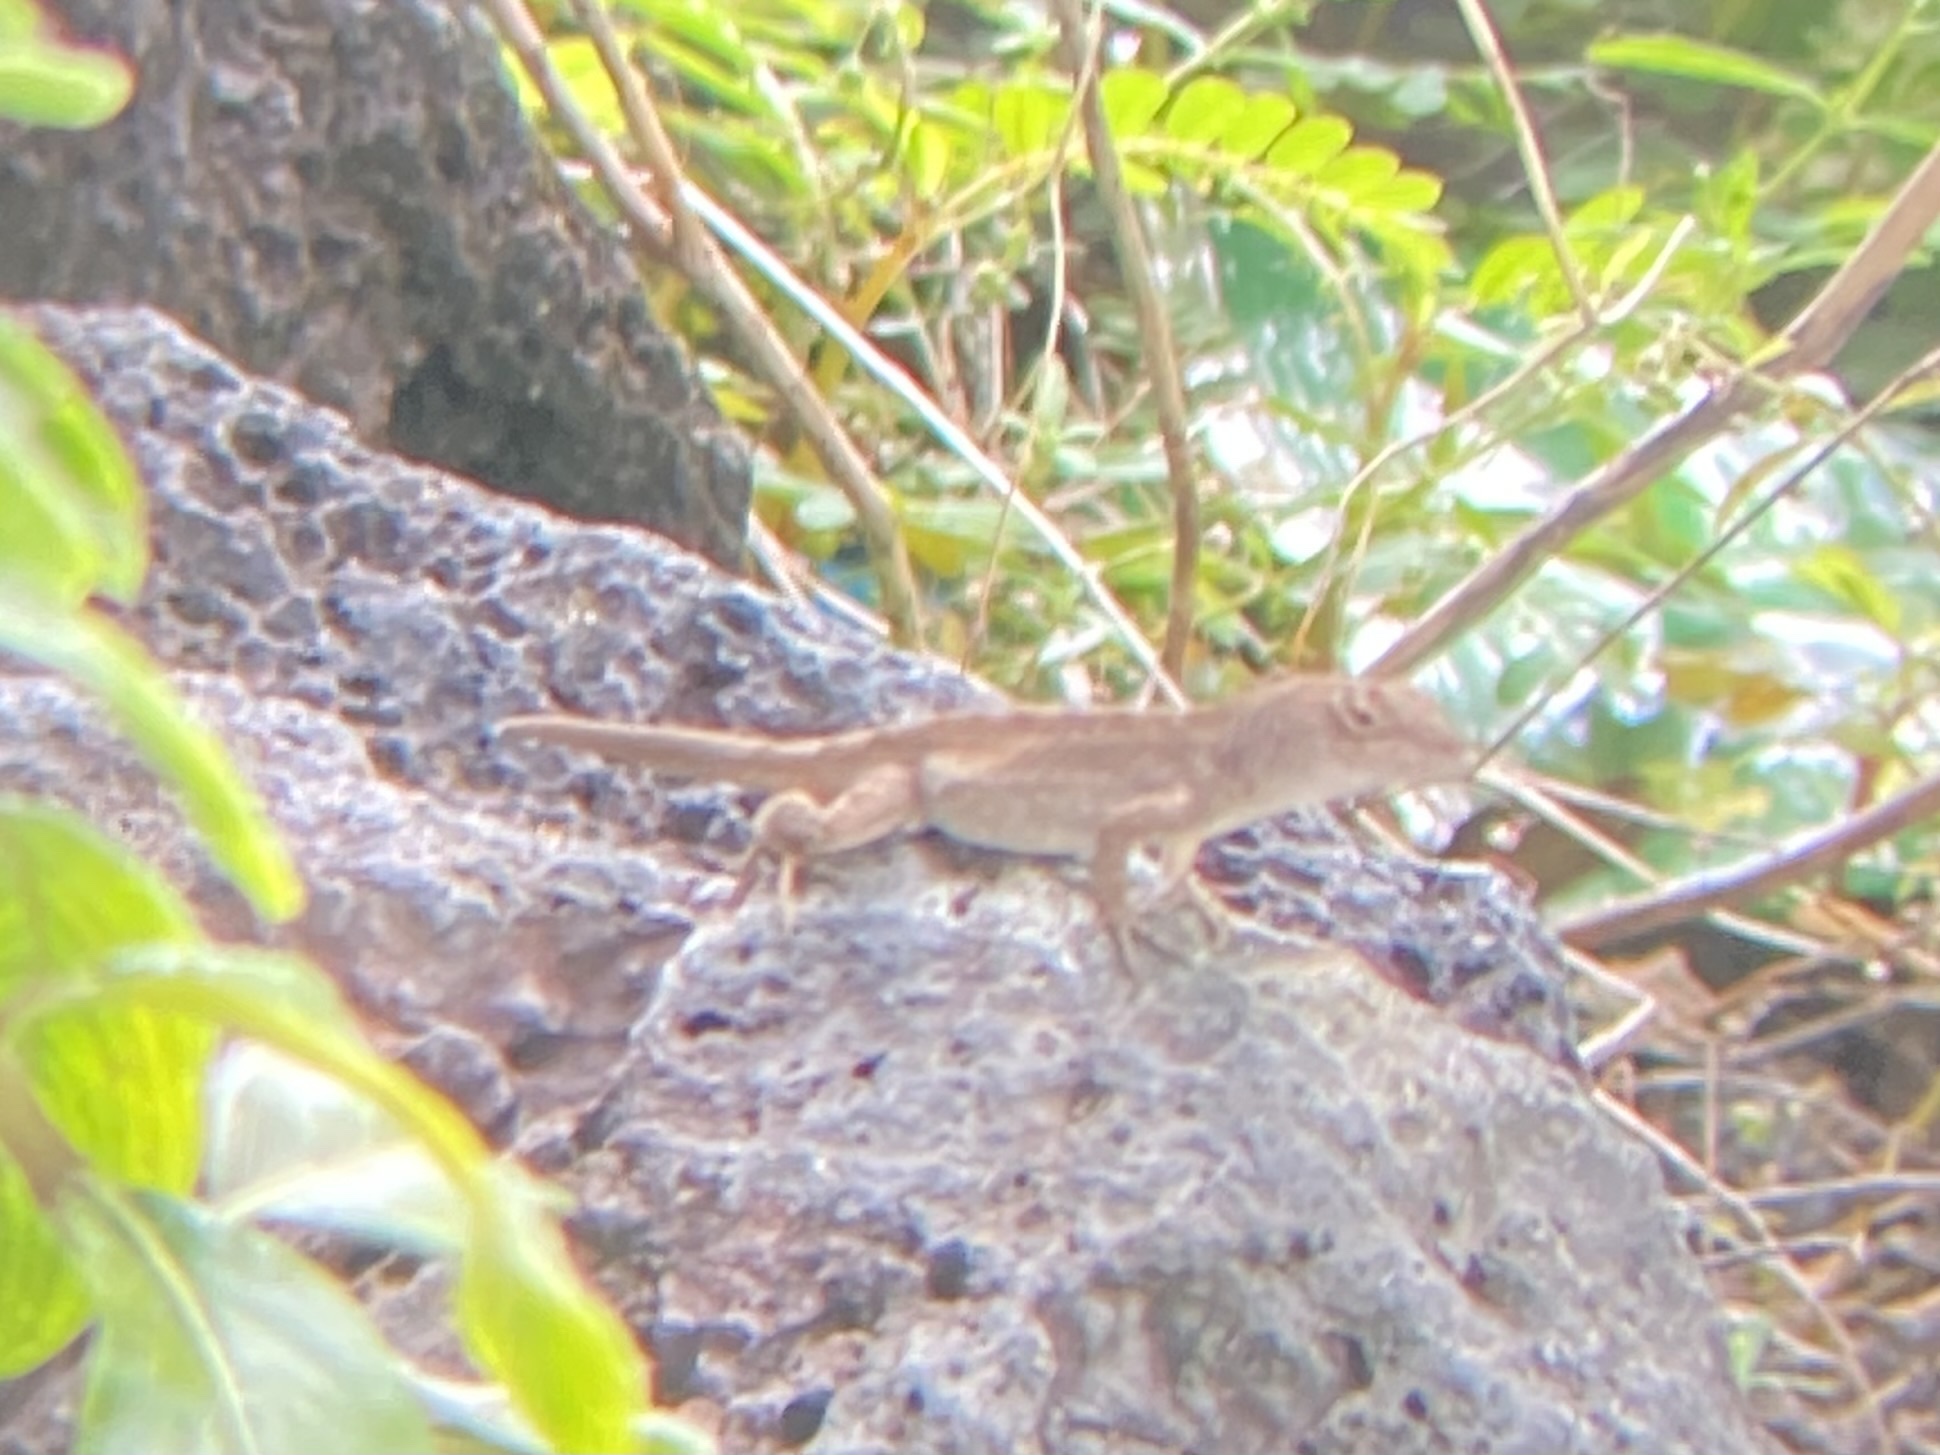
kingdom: Animalia
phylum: Chordata
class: Squamata
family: Dactyloidae
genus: Anolis
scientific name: Anolis sagrei
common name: Brown anole
